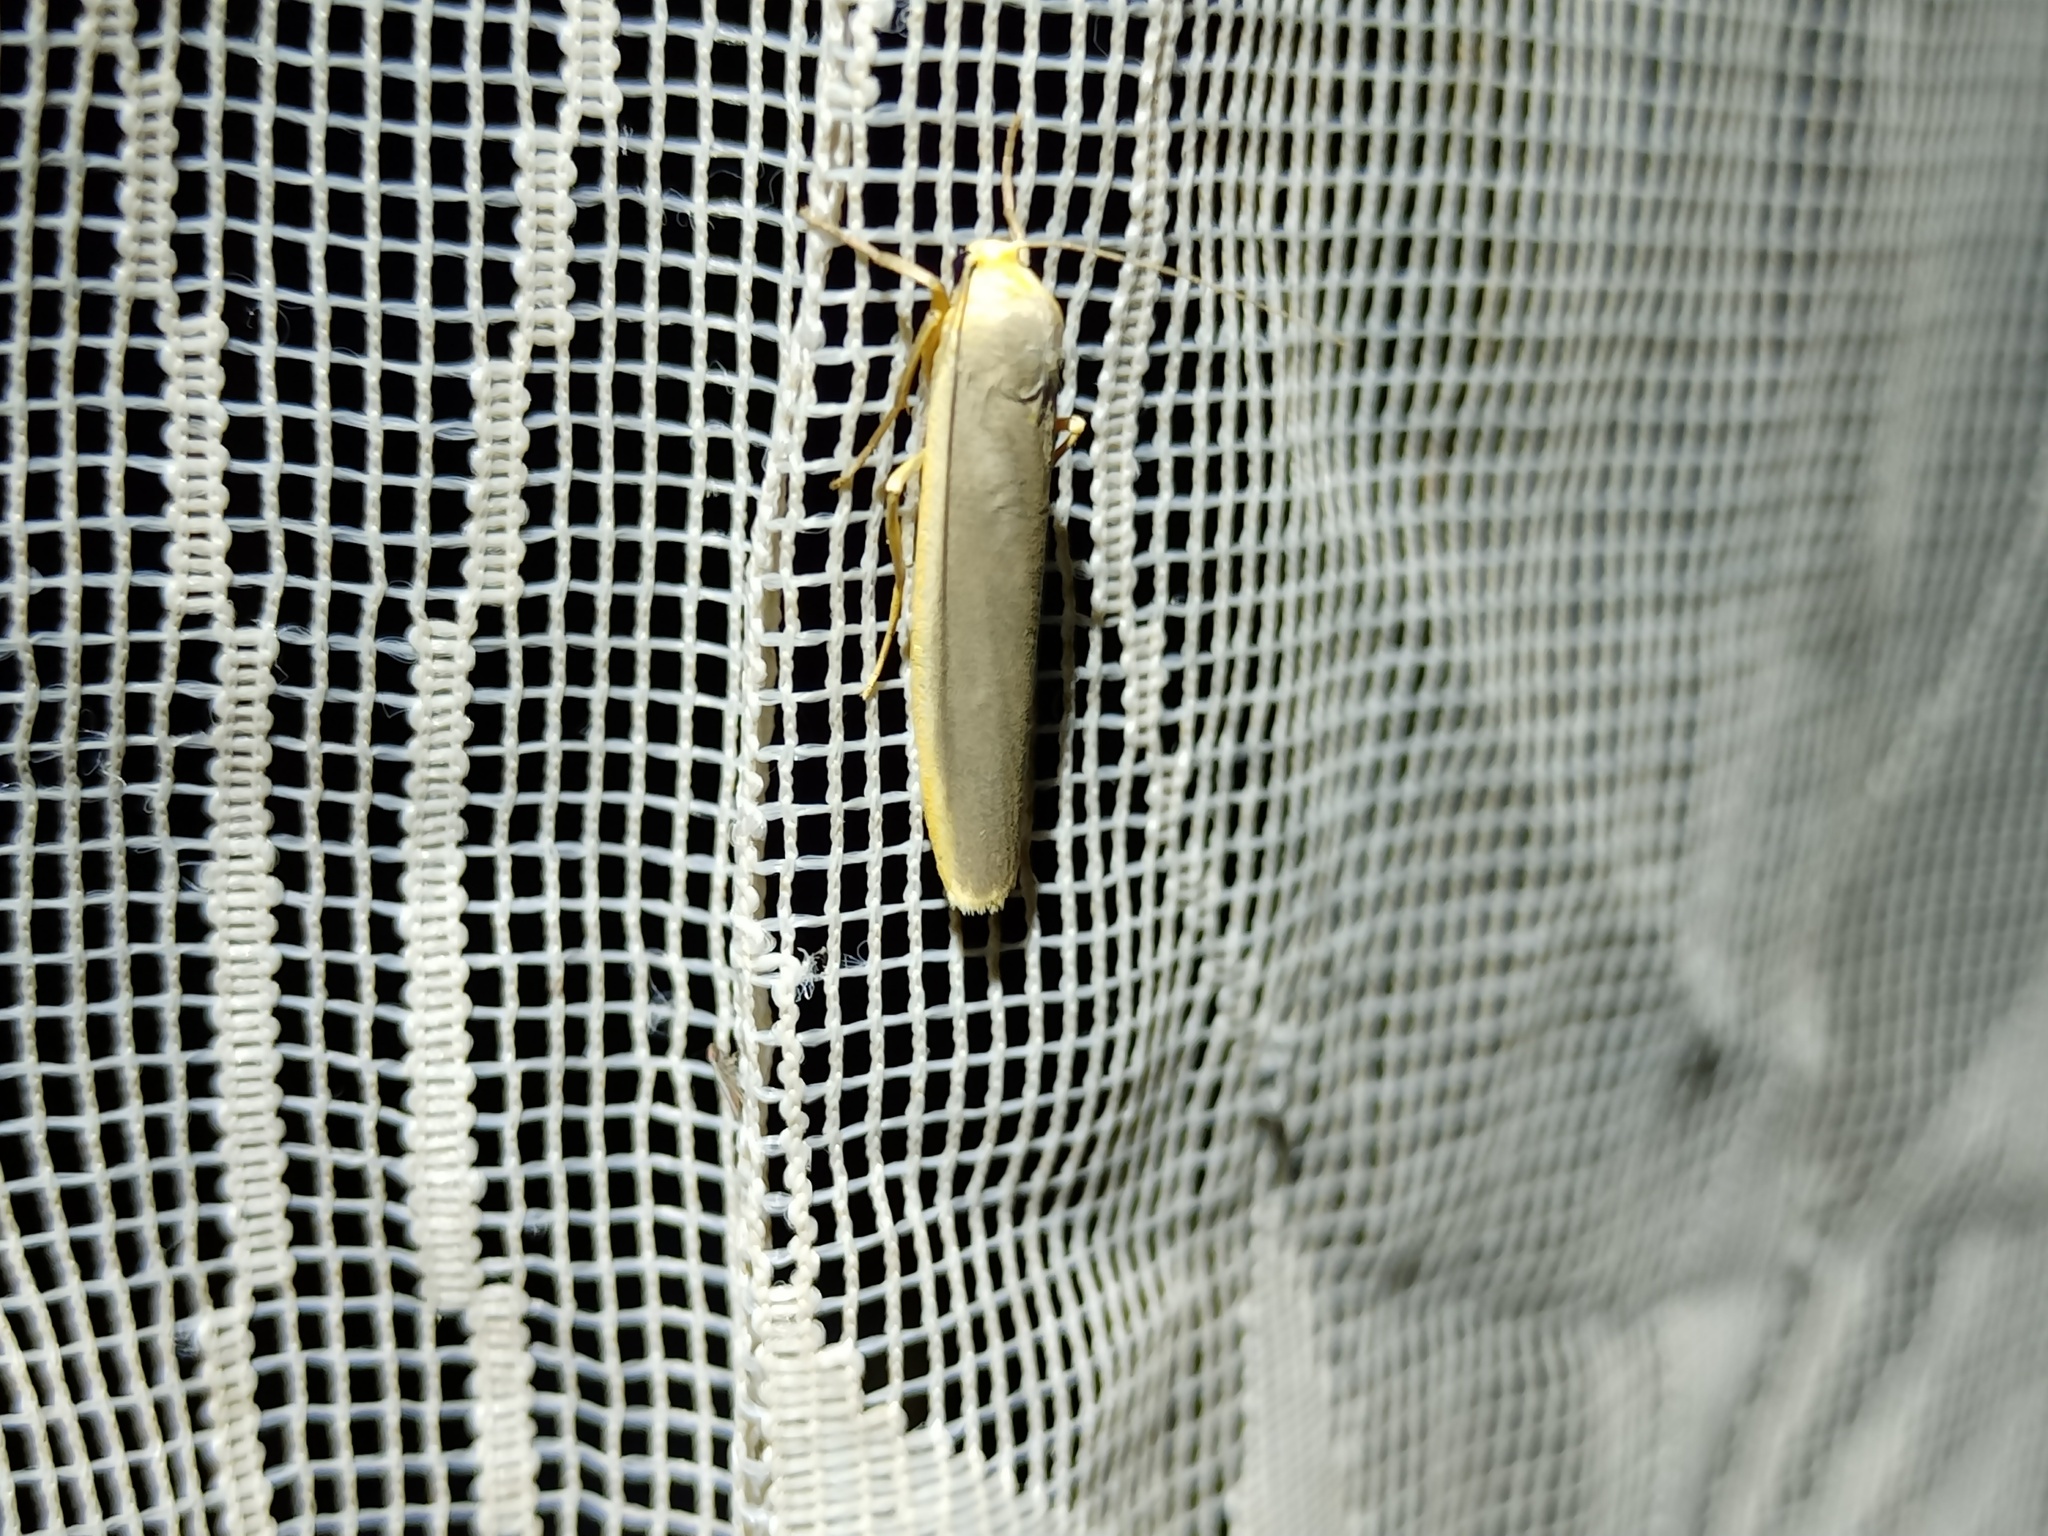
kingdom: Animalia
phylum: Arthropoda
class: Insecta
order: Lepidoptera
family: Erebidae
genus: Manulea
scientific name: Manulea complana
